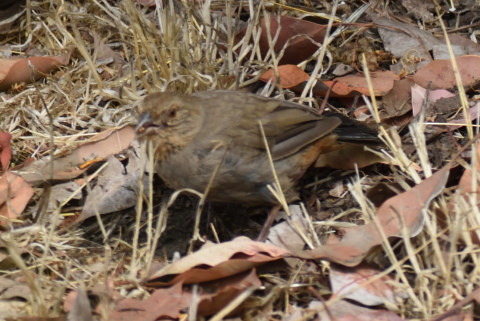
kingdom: Animalia
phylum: Chordata
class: Aves
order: Passeriformes
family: Passerellidae
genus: Melozone
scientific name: Melozone crissalis
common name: California towhee
